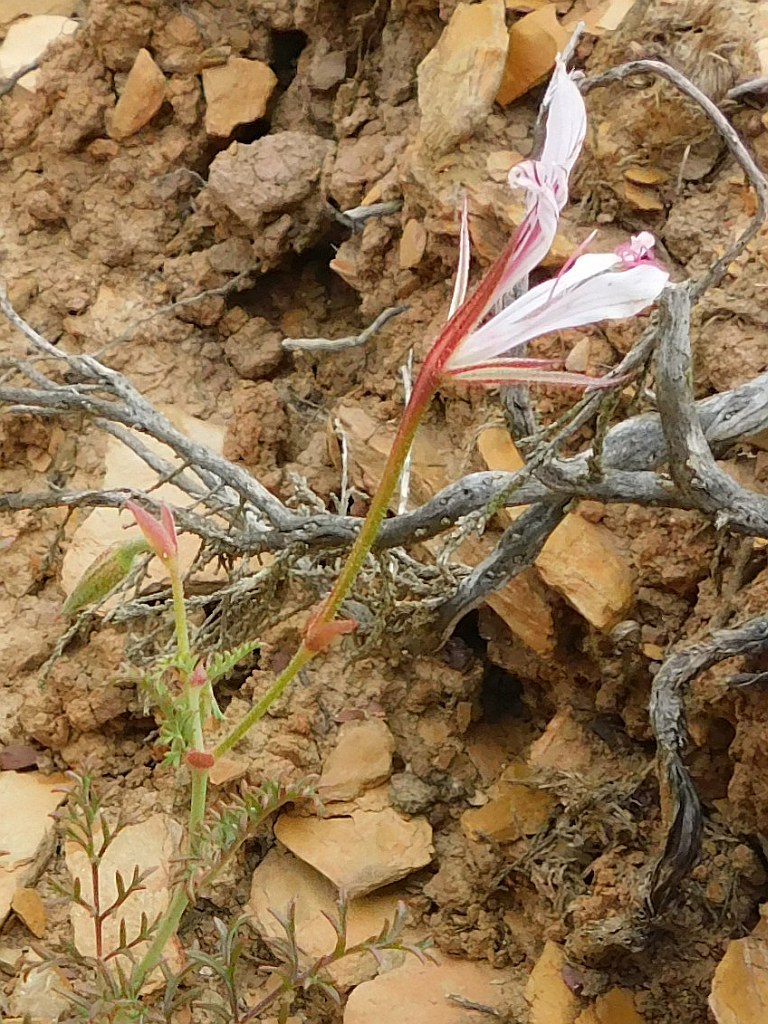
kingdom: Plantae
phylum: Tracheophyta
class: Magnoliopsida
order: Geraniales
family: Geraniaceae
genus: Pelargonium
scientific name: Pelargonium caucalifolium
